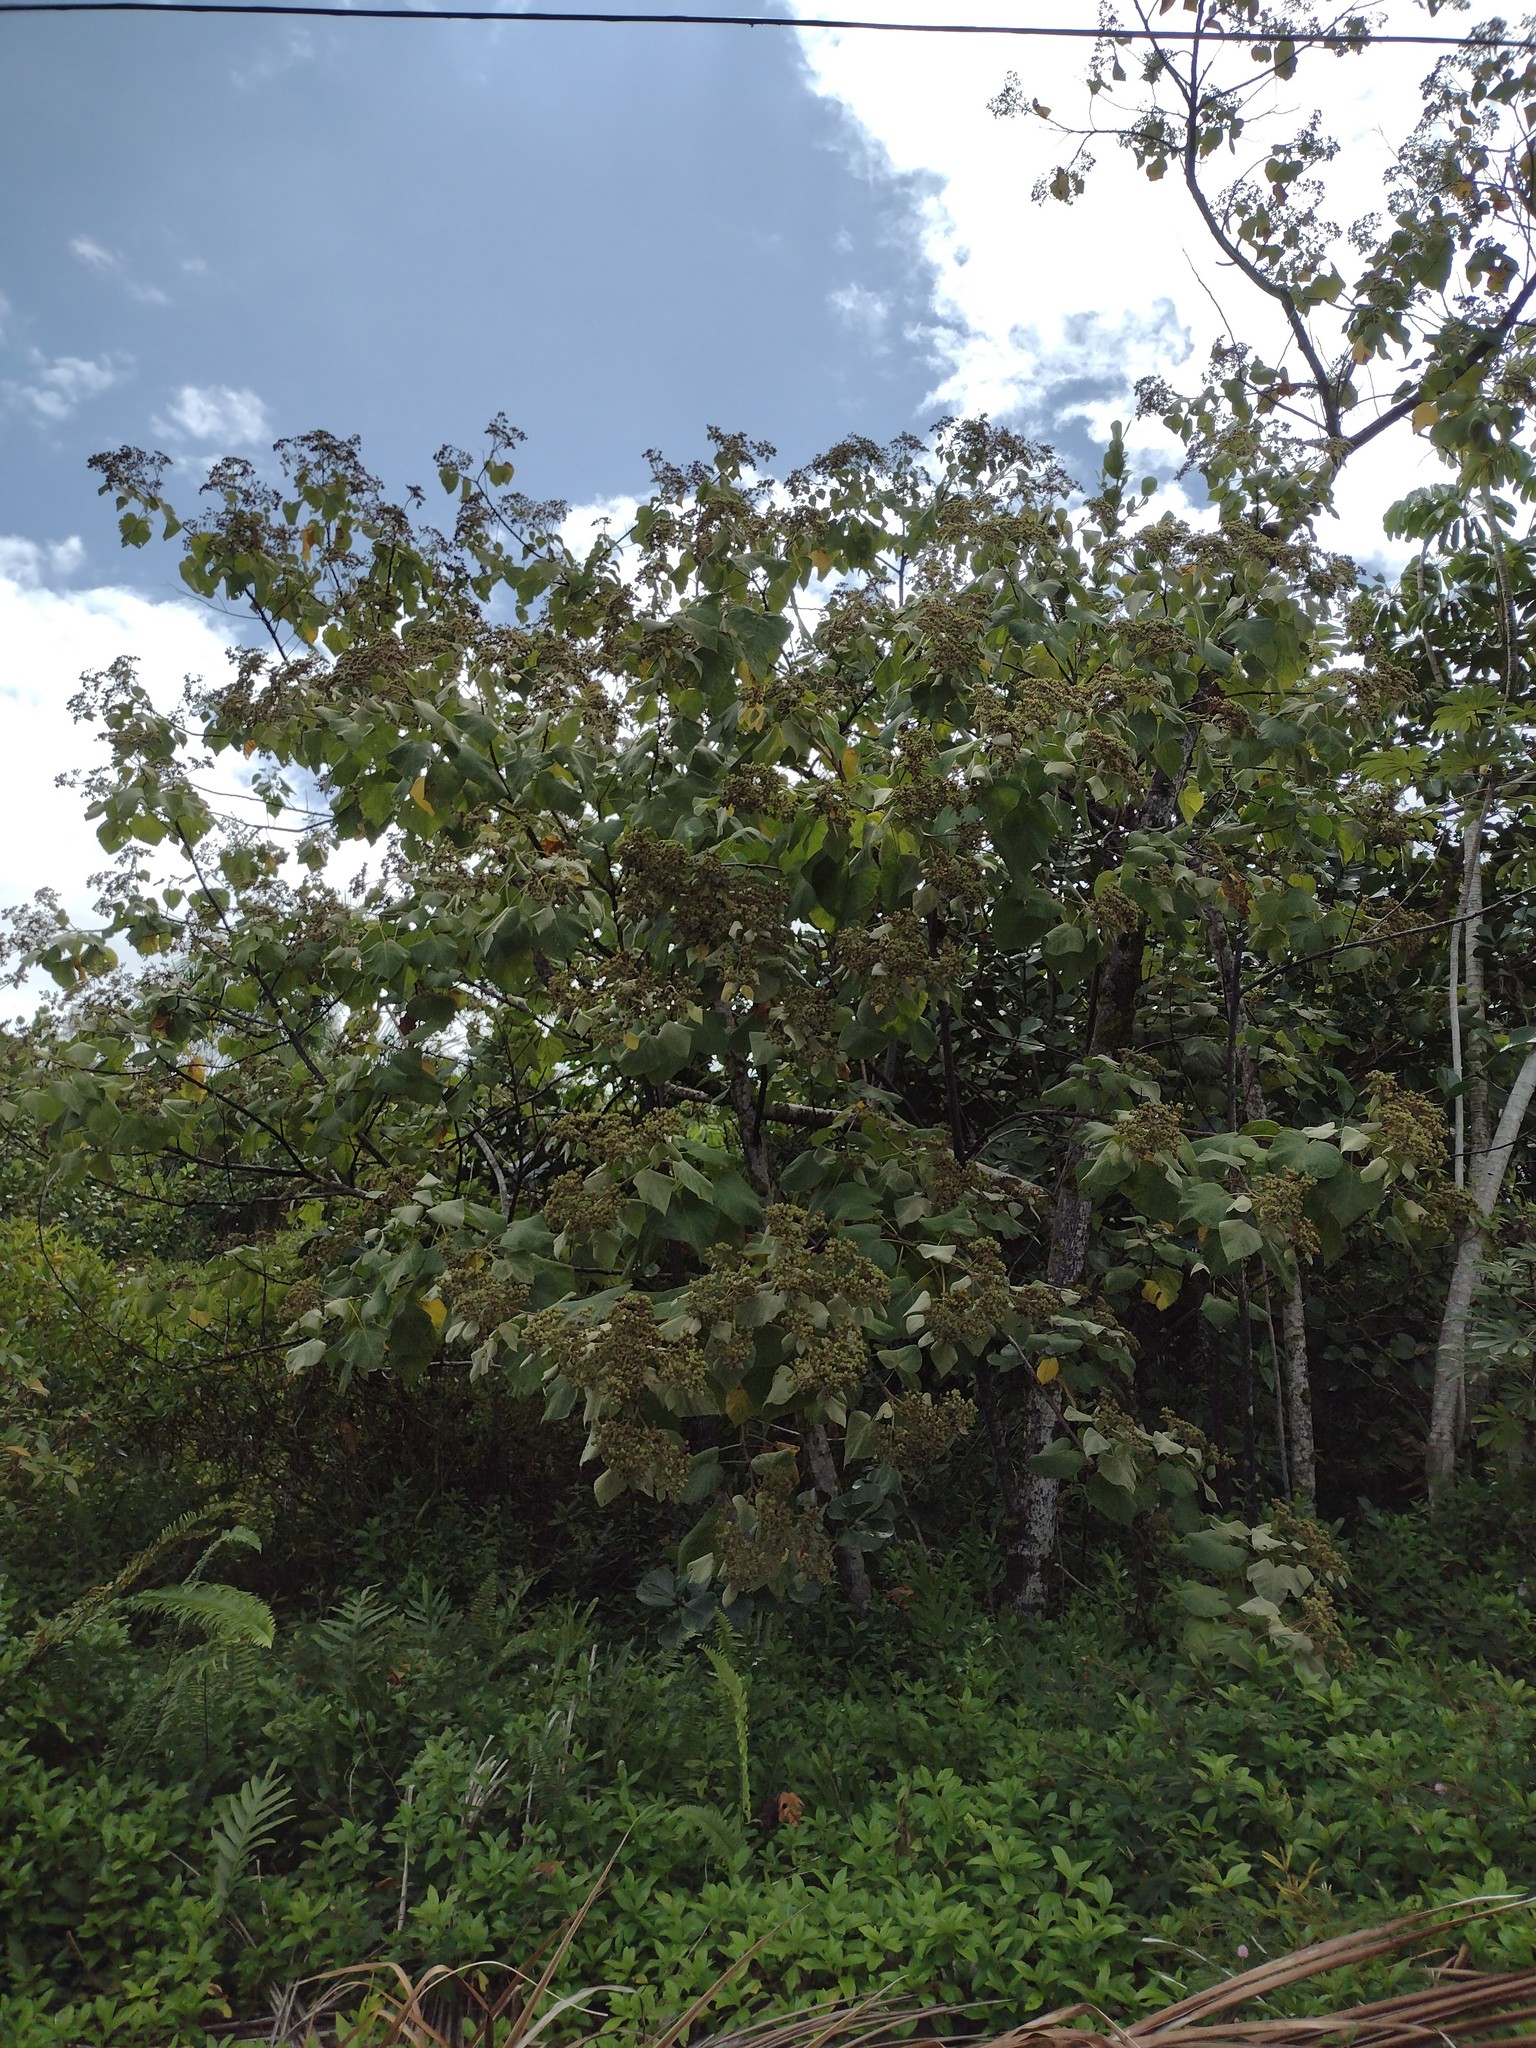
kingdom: Plantae
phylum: Tracheophyta
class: Magnoliopsida
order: Malvales
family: Malvaceae
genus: Melochia
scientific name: Melochia umbellata
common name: Gunpowder tree
